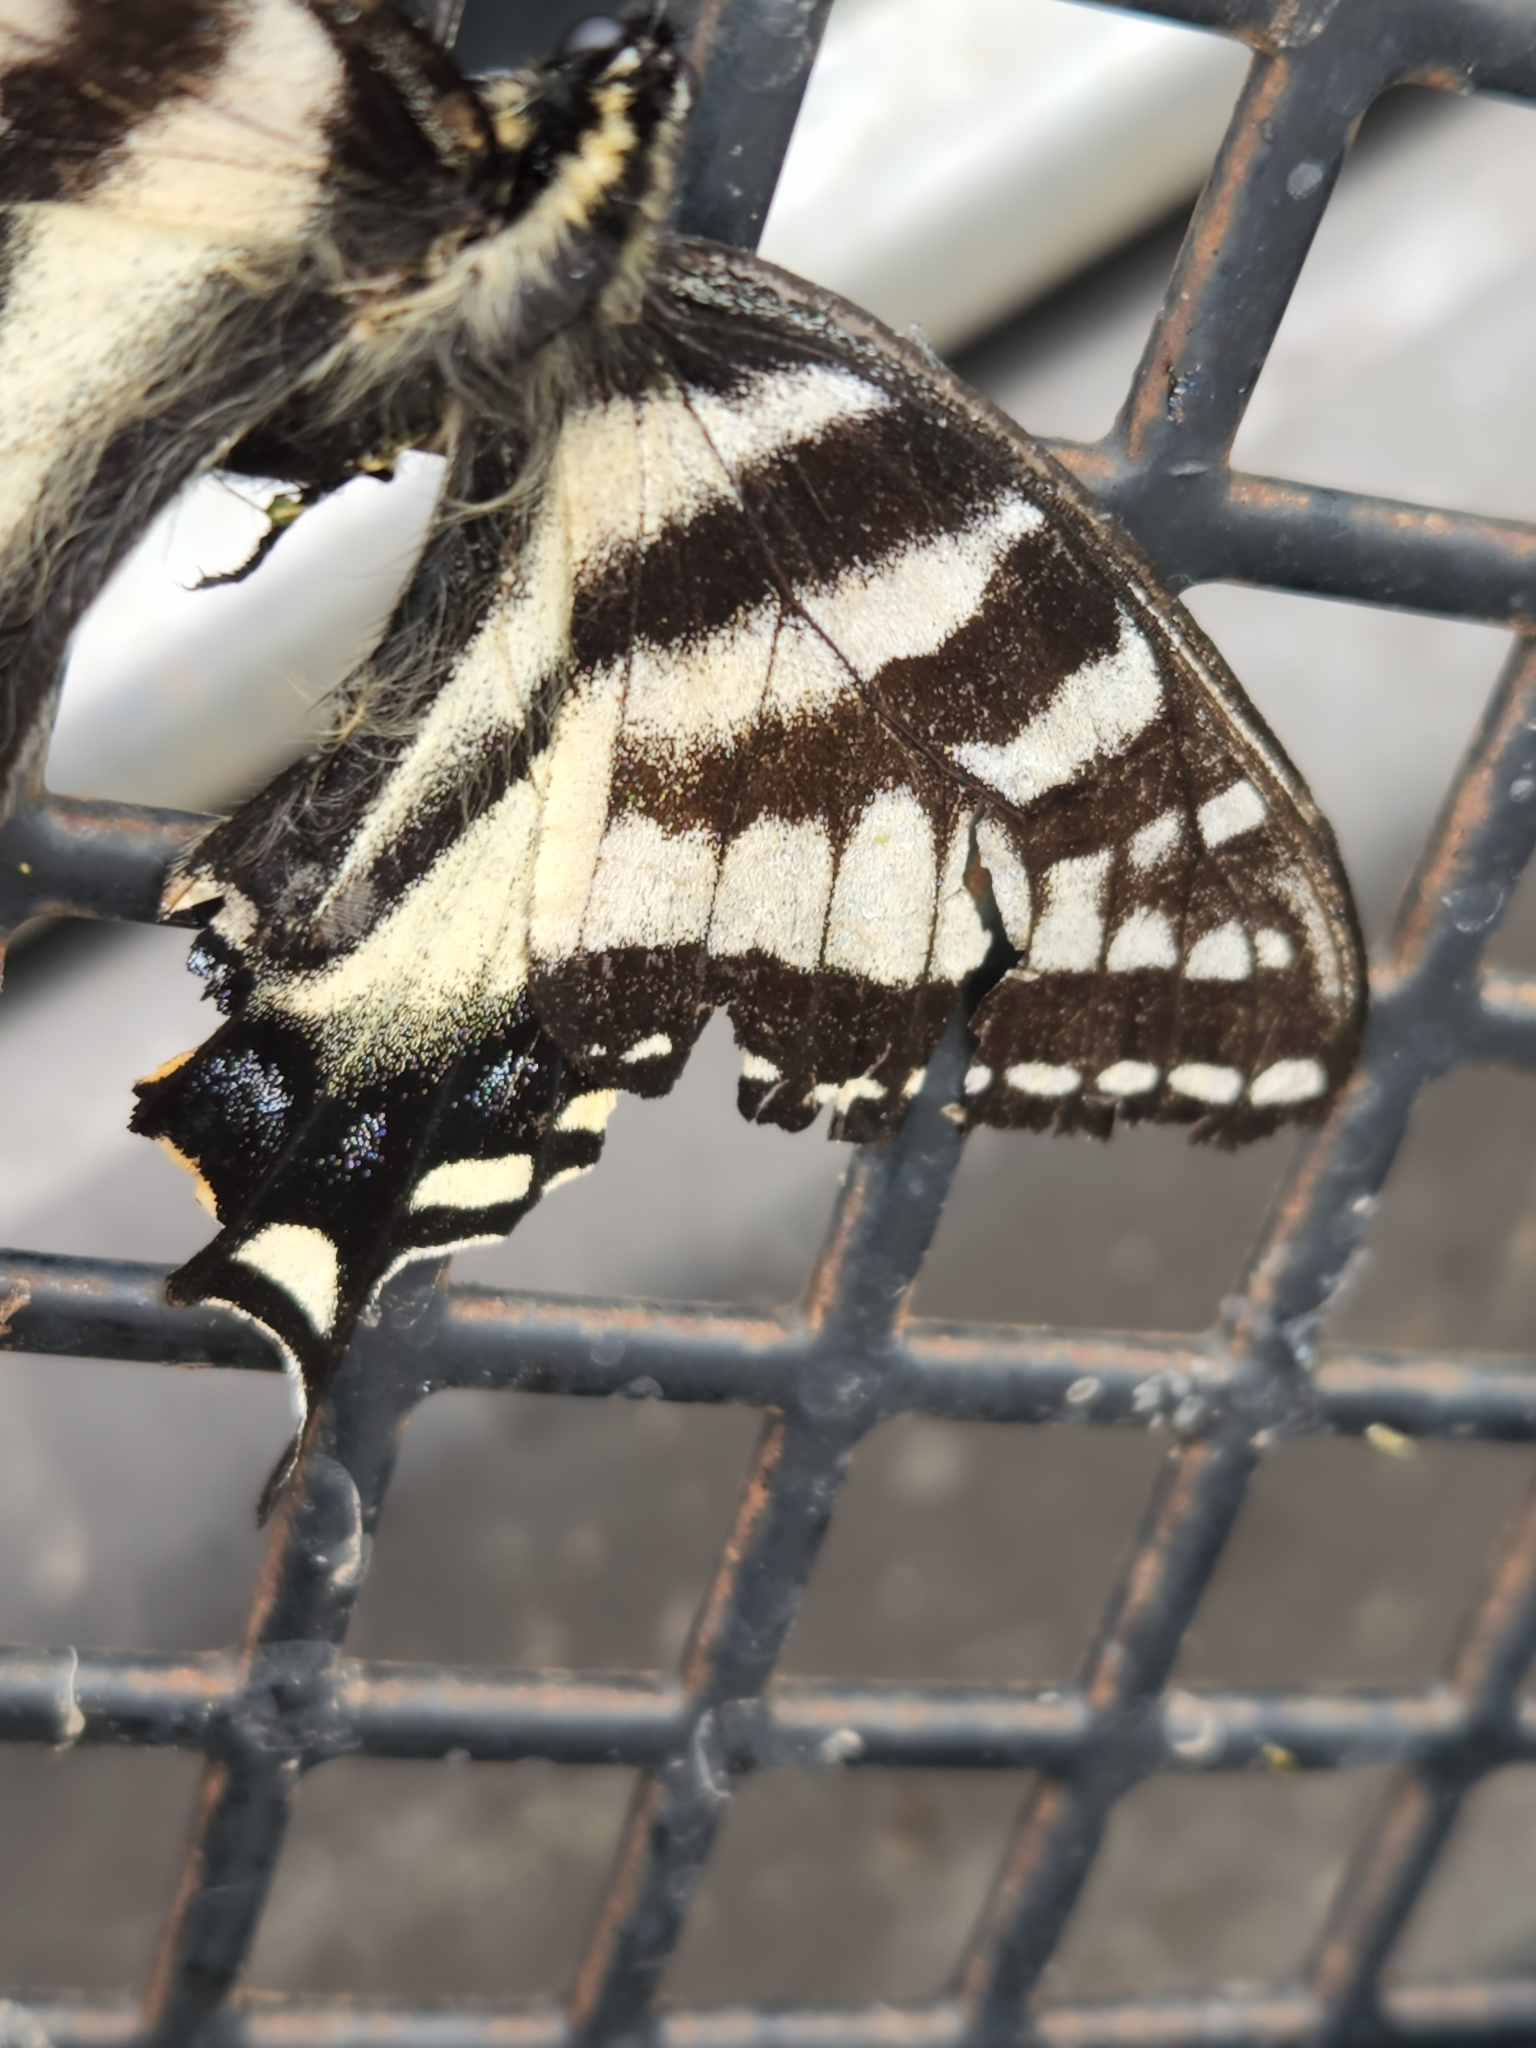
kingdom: Animalia
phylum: Arthropoda
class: Insecta
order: Lepidoptera
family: Papilionidae
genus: Papilio
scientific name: Papilio canadensis
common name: Canadian tiger swallowtail
